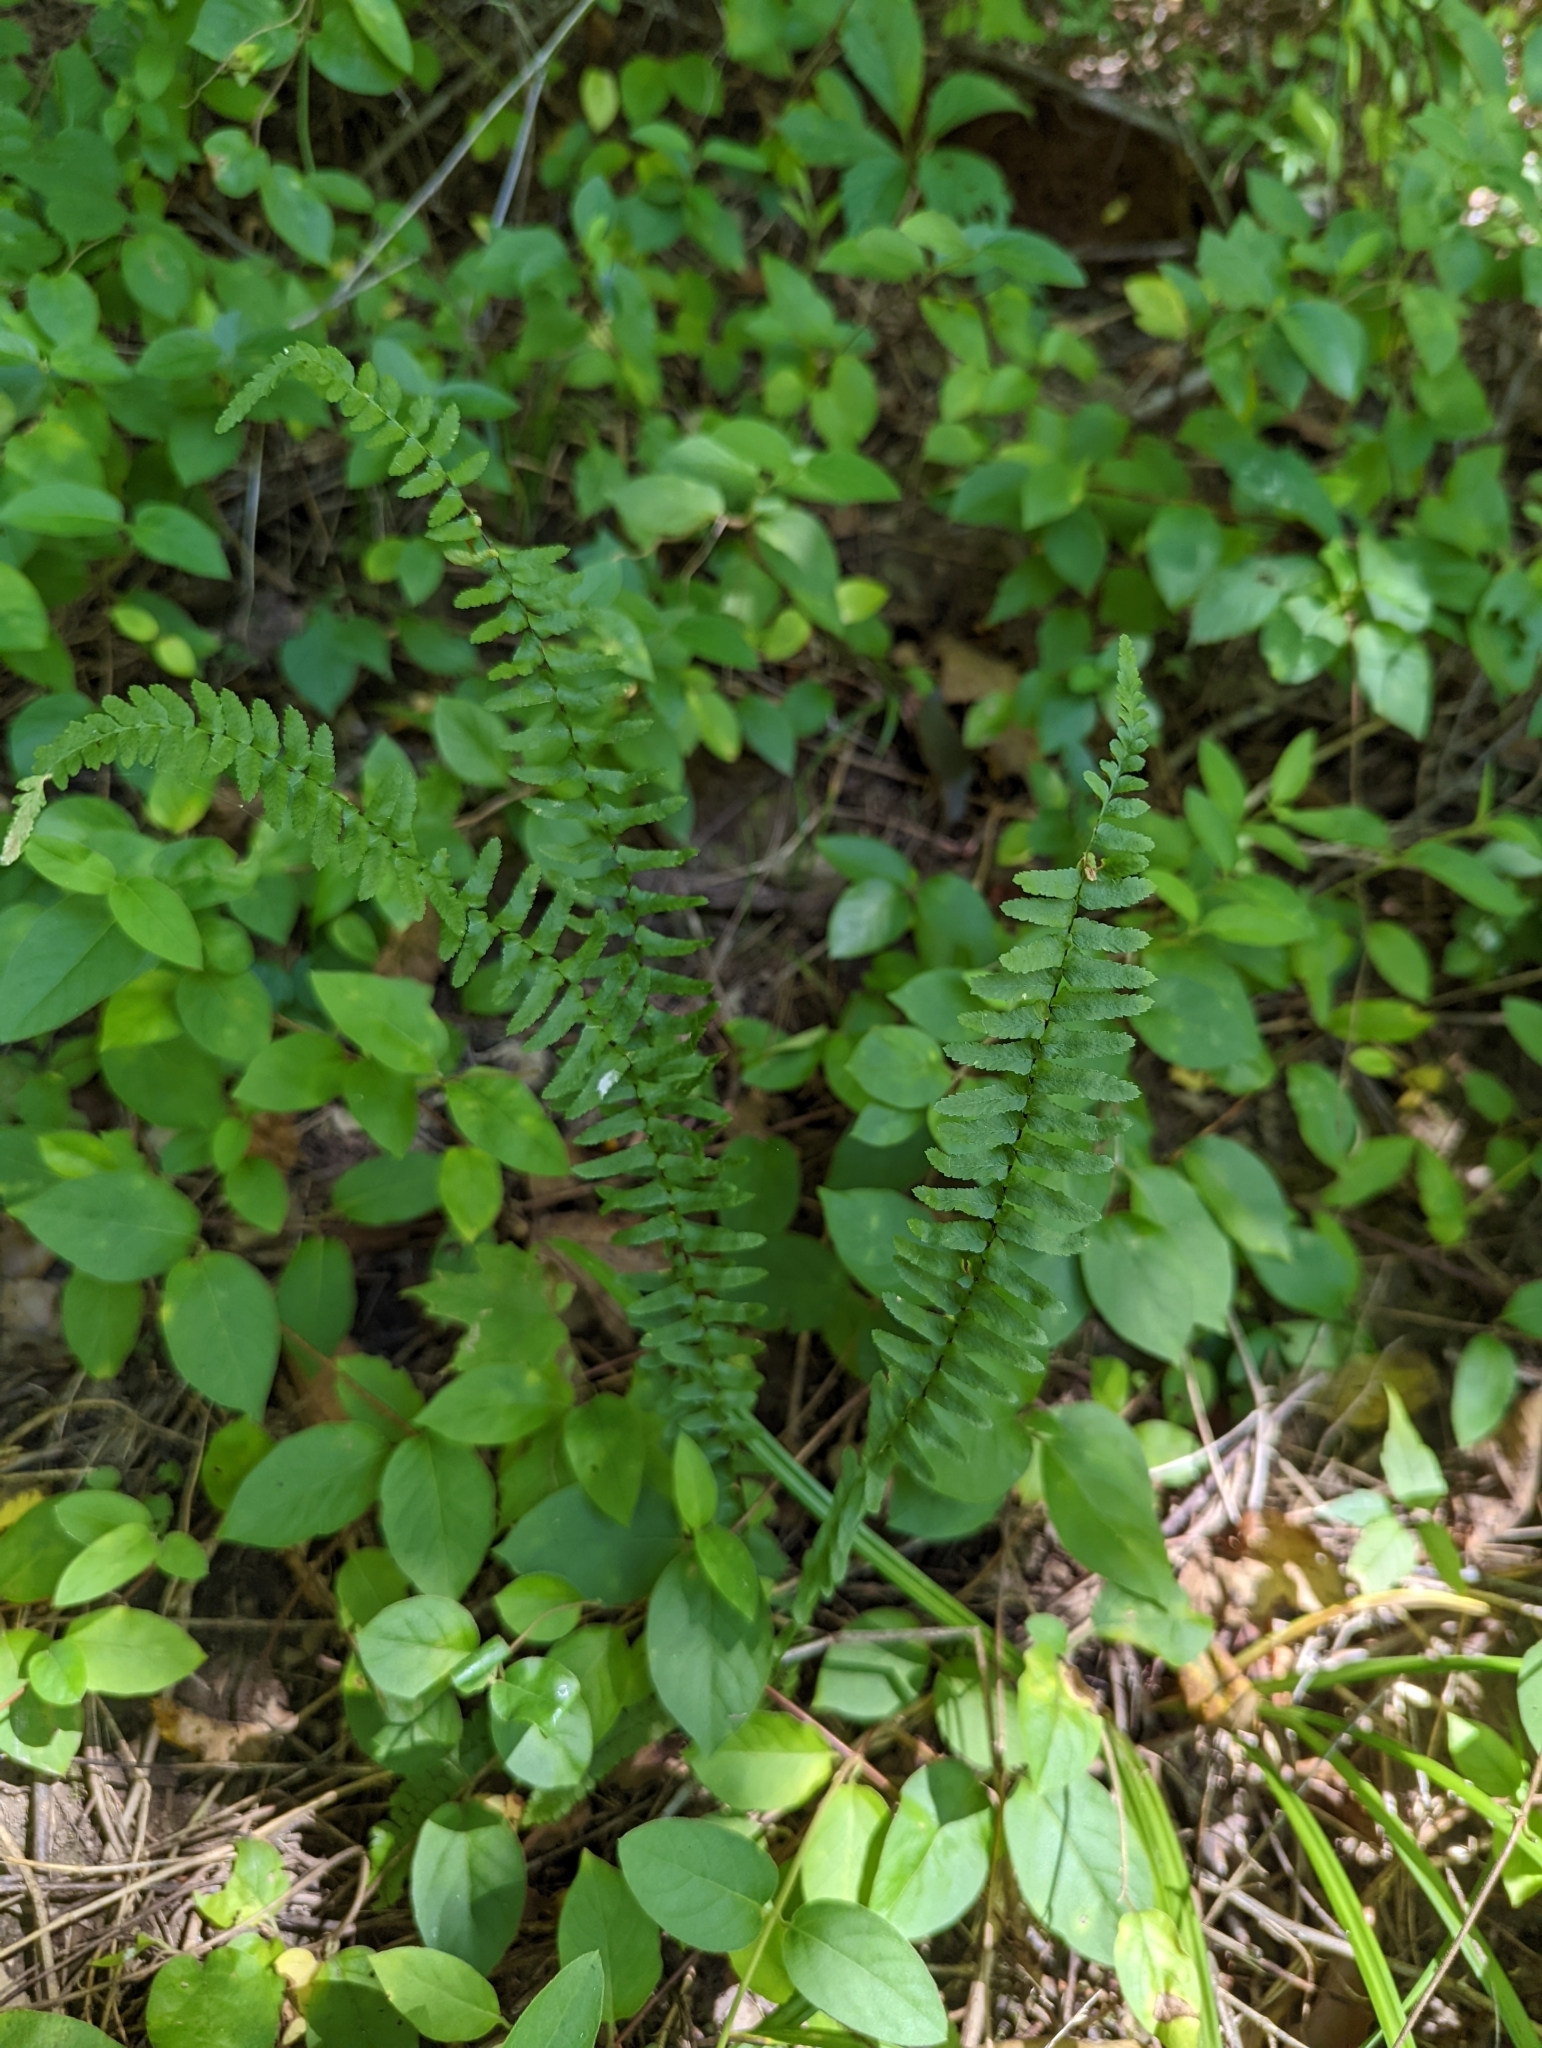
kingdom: Plantae
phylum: Tracheophyta
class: Polypodiopsida
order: Polypodiales
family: Aspleniaceae
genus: Asplenium
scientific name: Asplenium platyneuron
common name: Ebony spleenwort
